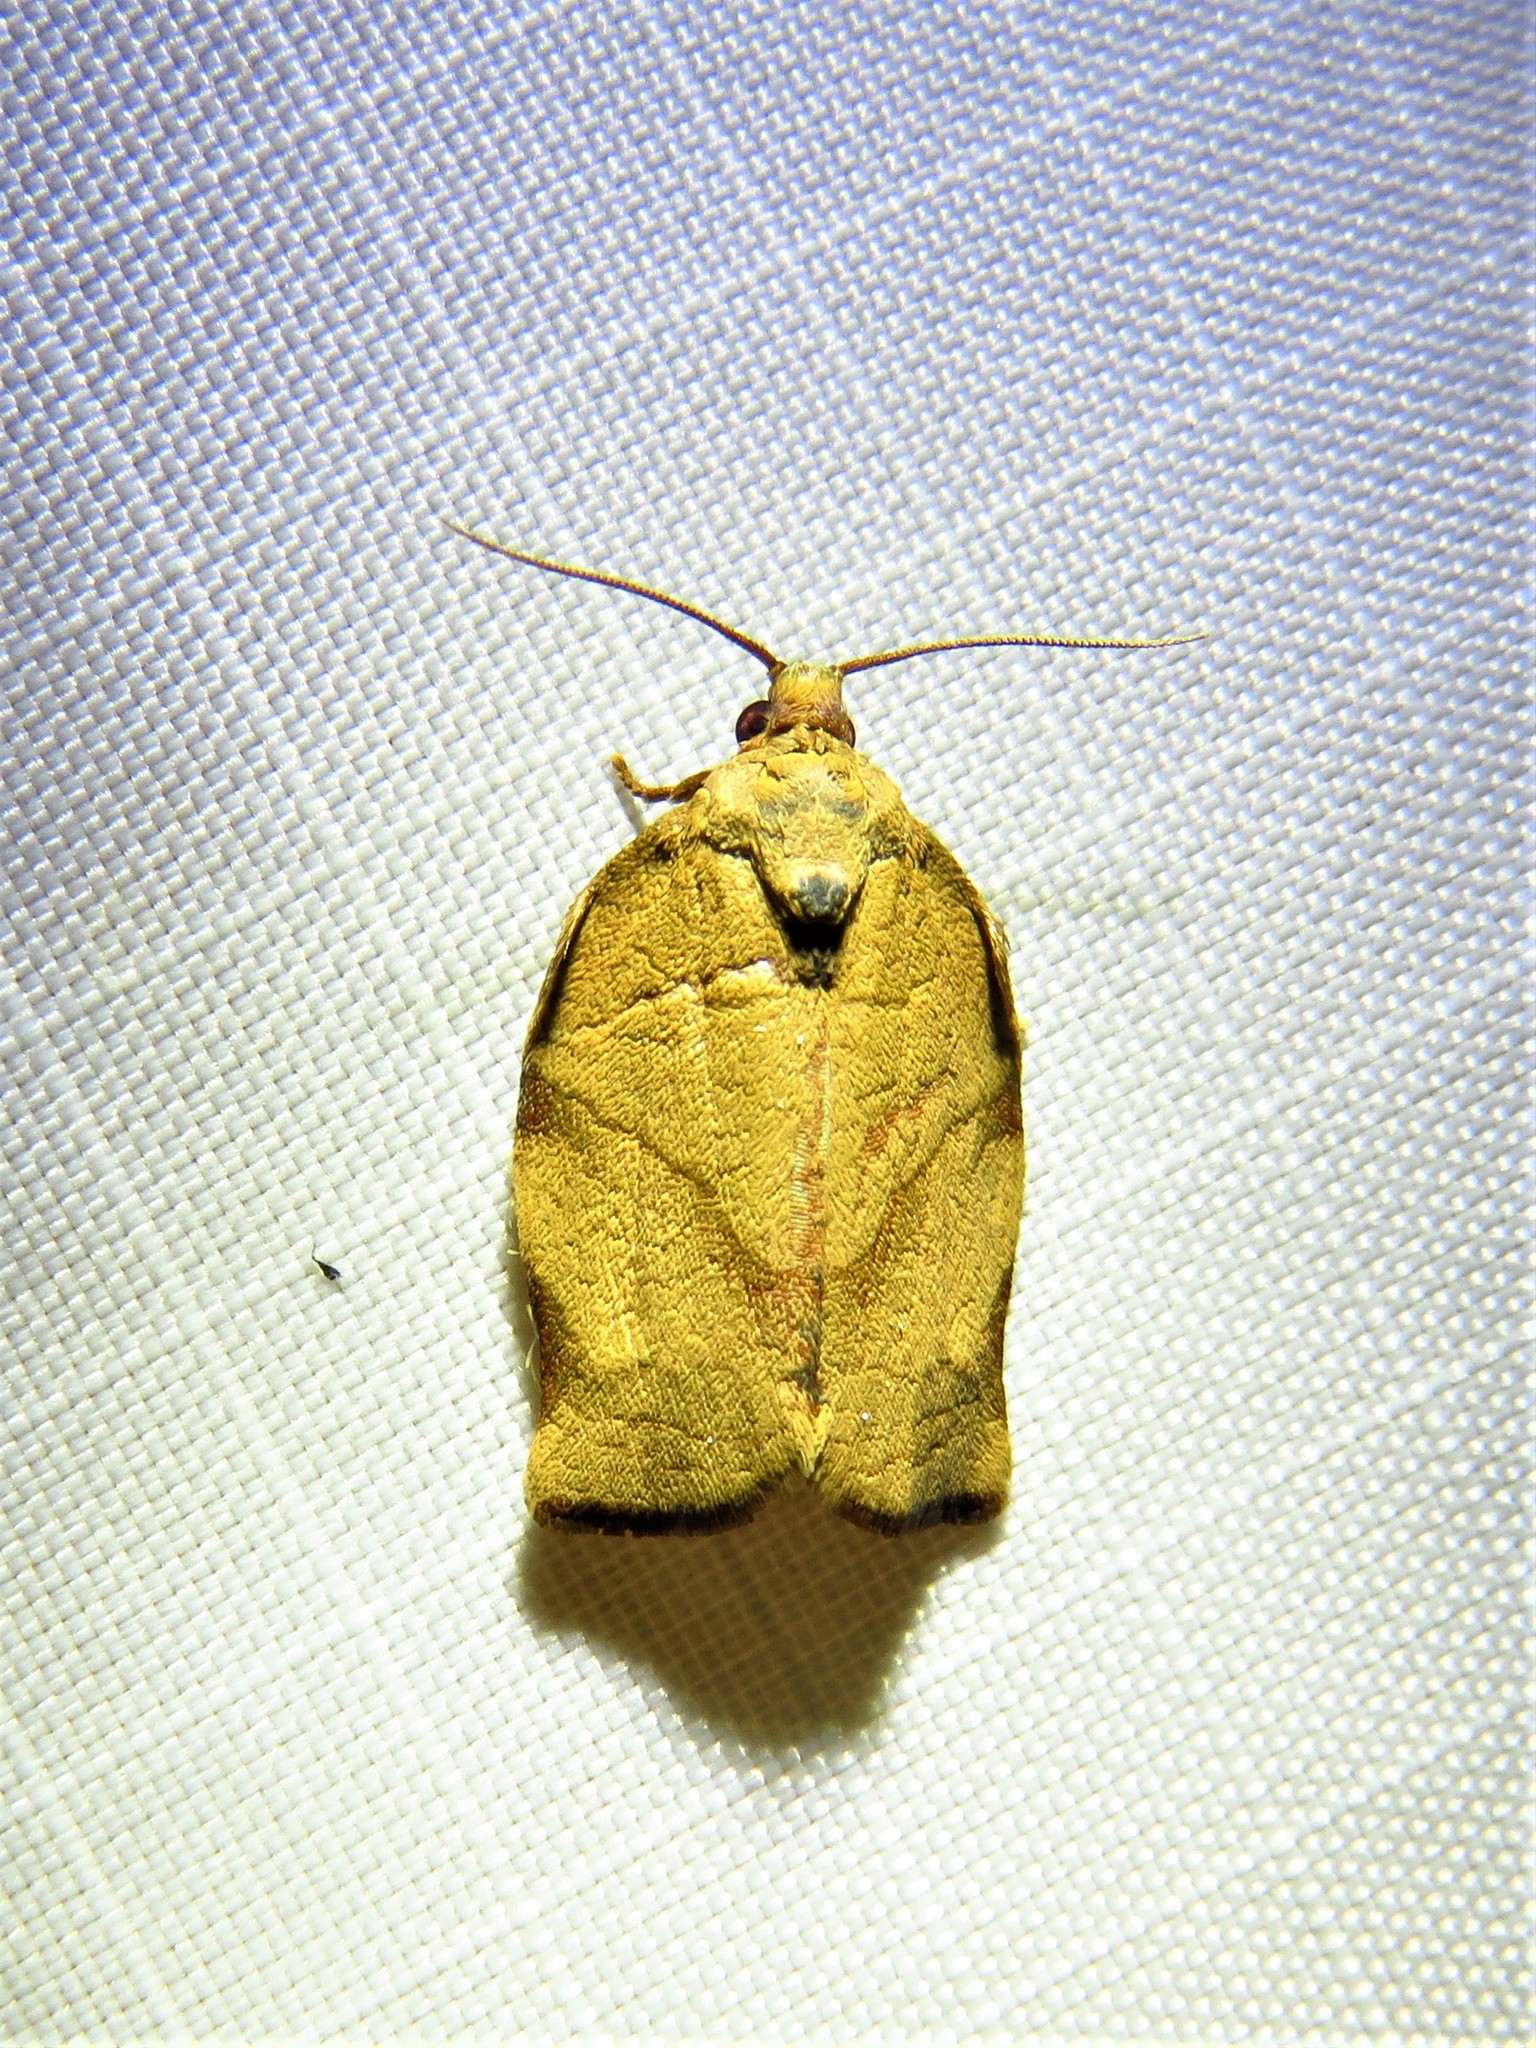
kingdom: Animalia
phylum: Arthropoda
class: Insecta
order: Lepidoptera
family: Tortricidae
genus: Choristoneura
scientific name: Choristoneura rosaceana
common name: Oblique-banded leafroller moth
